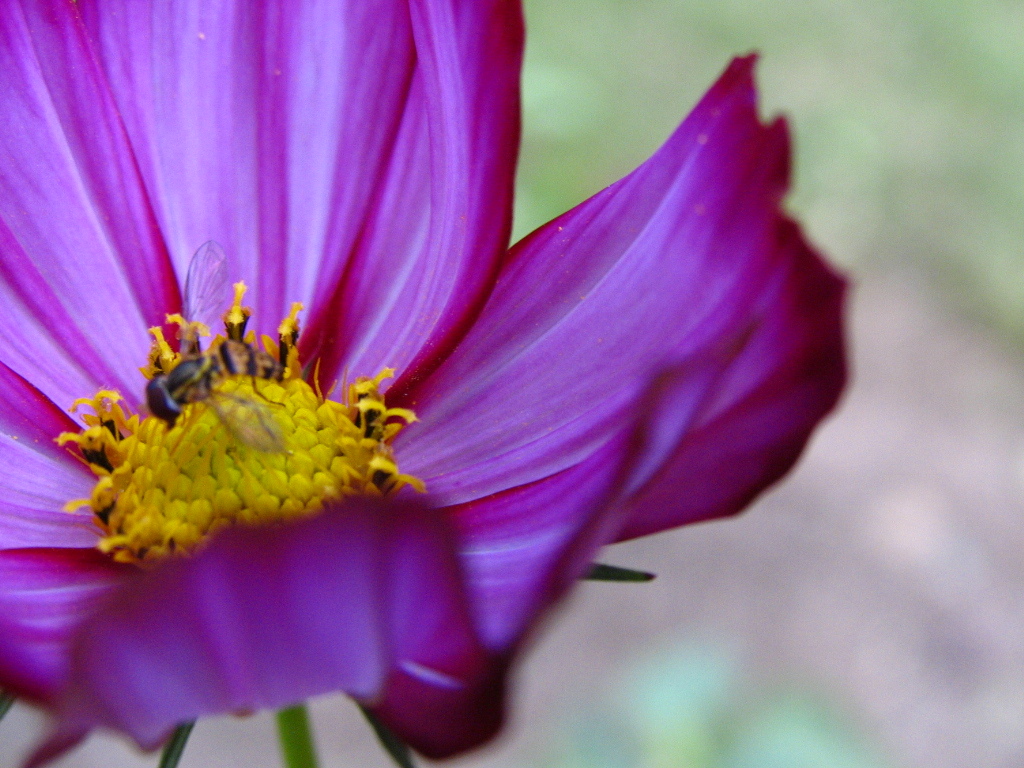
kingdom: Animalia
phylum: Arthropoda
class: Insecta
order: Diptera
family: Syrphidae
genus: Toxomerus
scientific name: Toxomerus geminatus
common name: Eastern calligrapher
